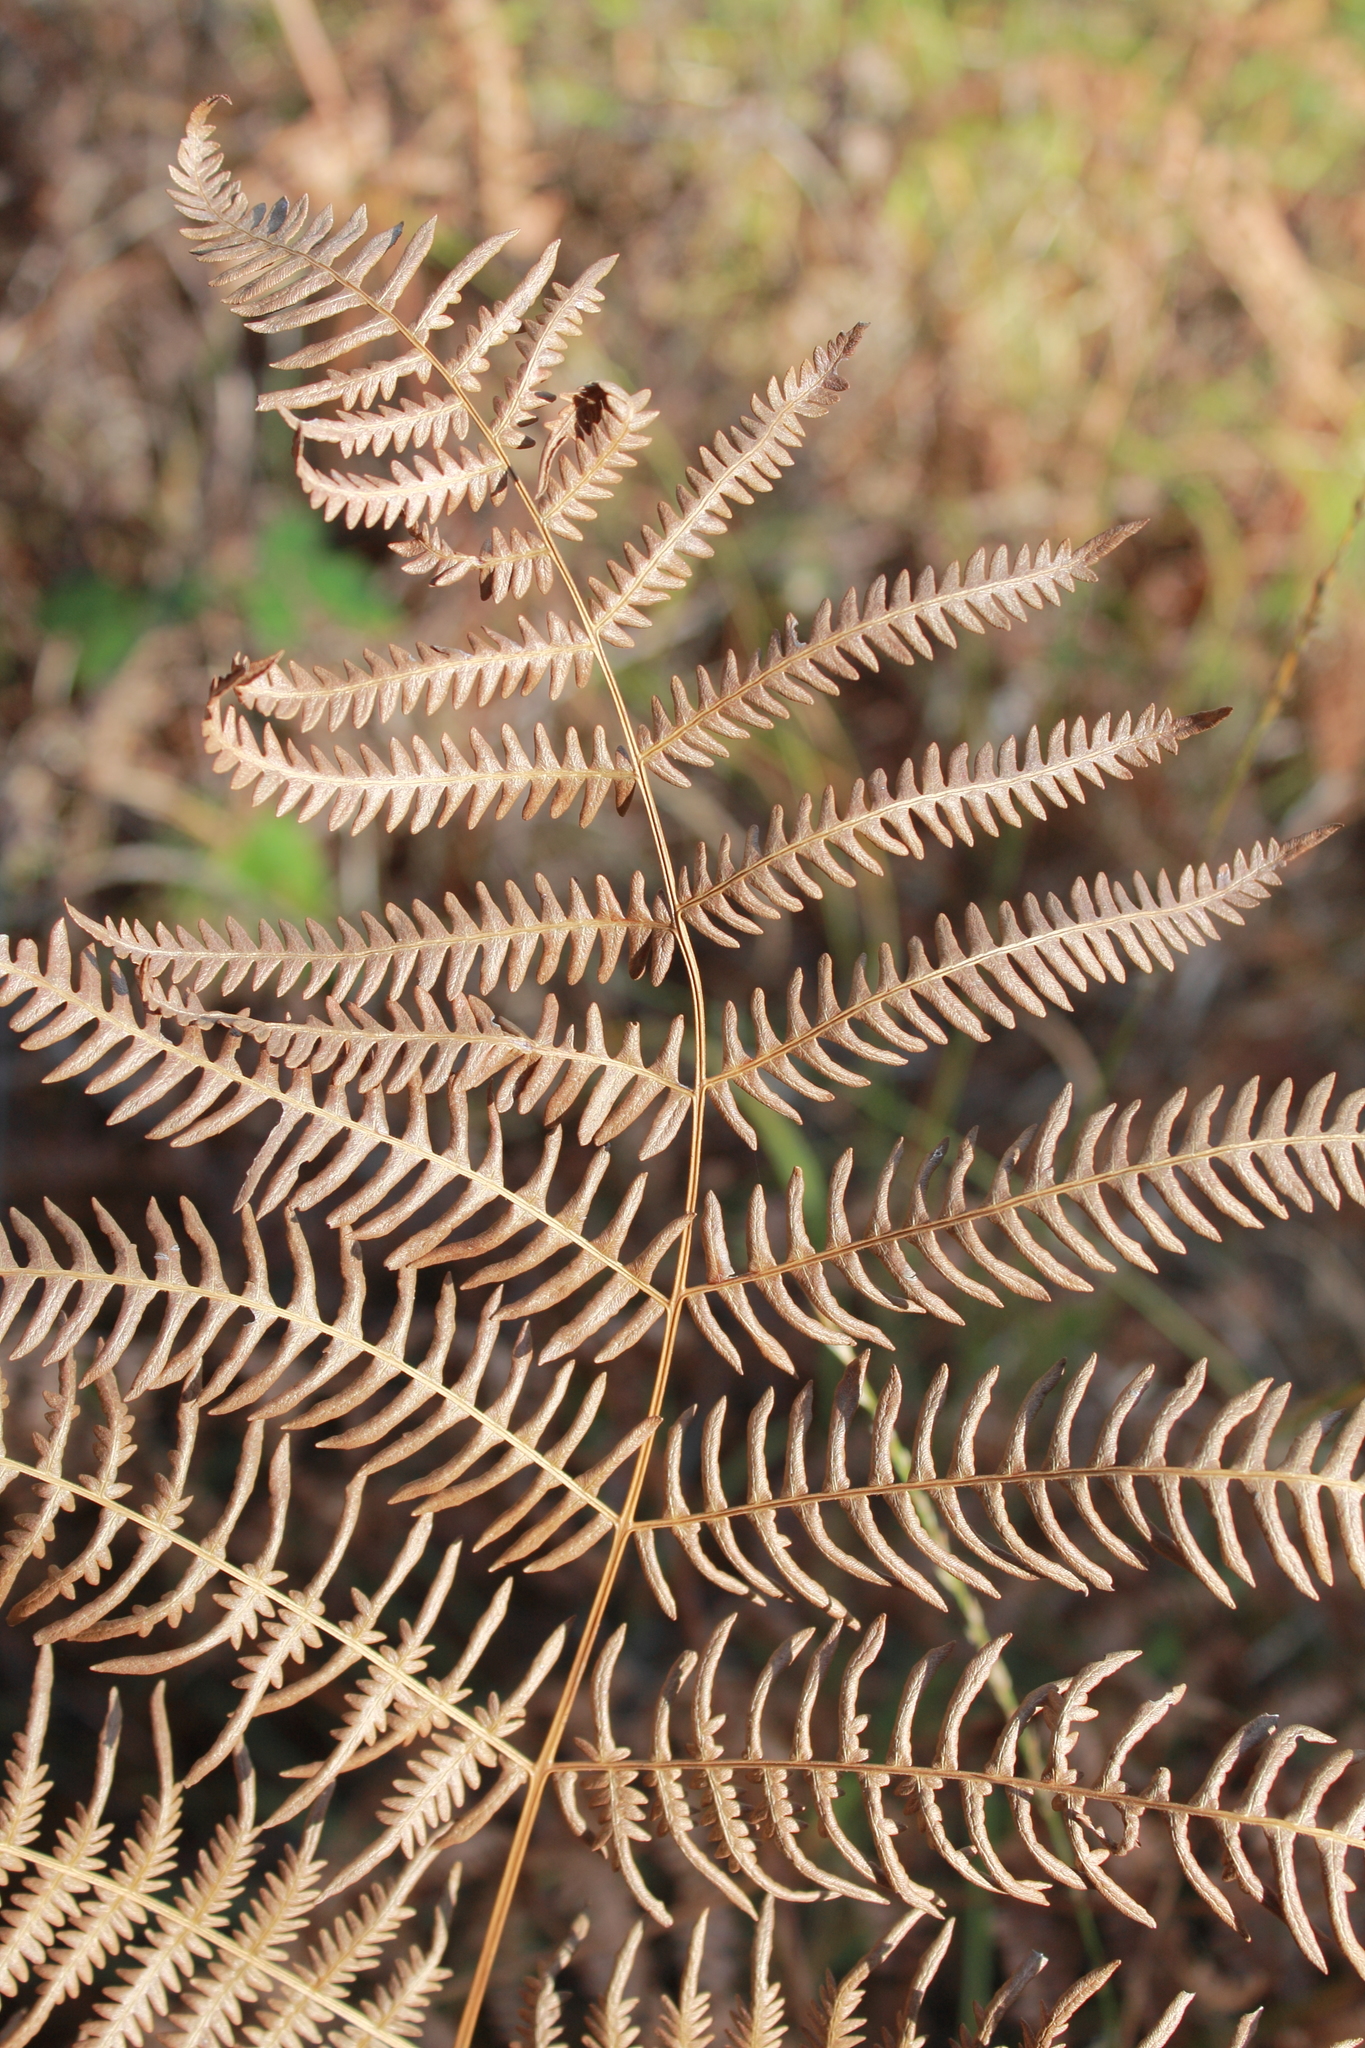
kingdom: Plantae
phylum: Tracheophyta
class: Polypodiopsida
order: Polypodiales
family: Dennstaedtiaceae
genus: Pteridium
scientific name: Pteridium aquilinum
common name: Bracken
